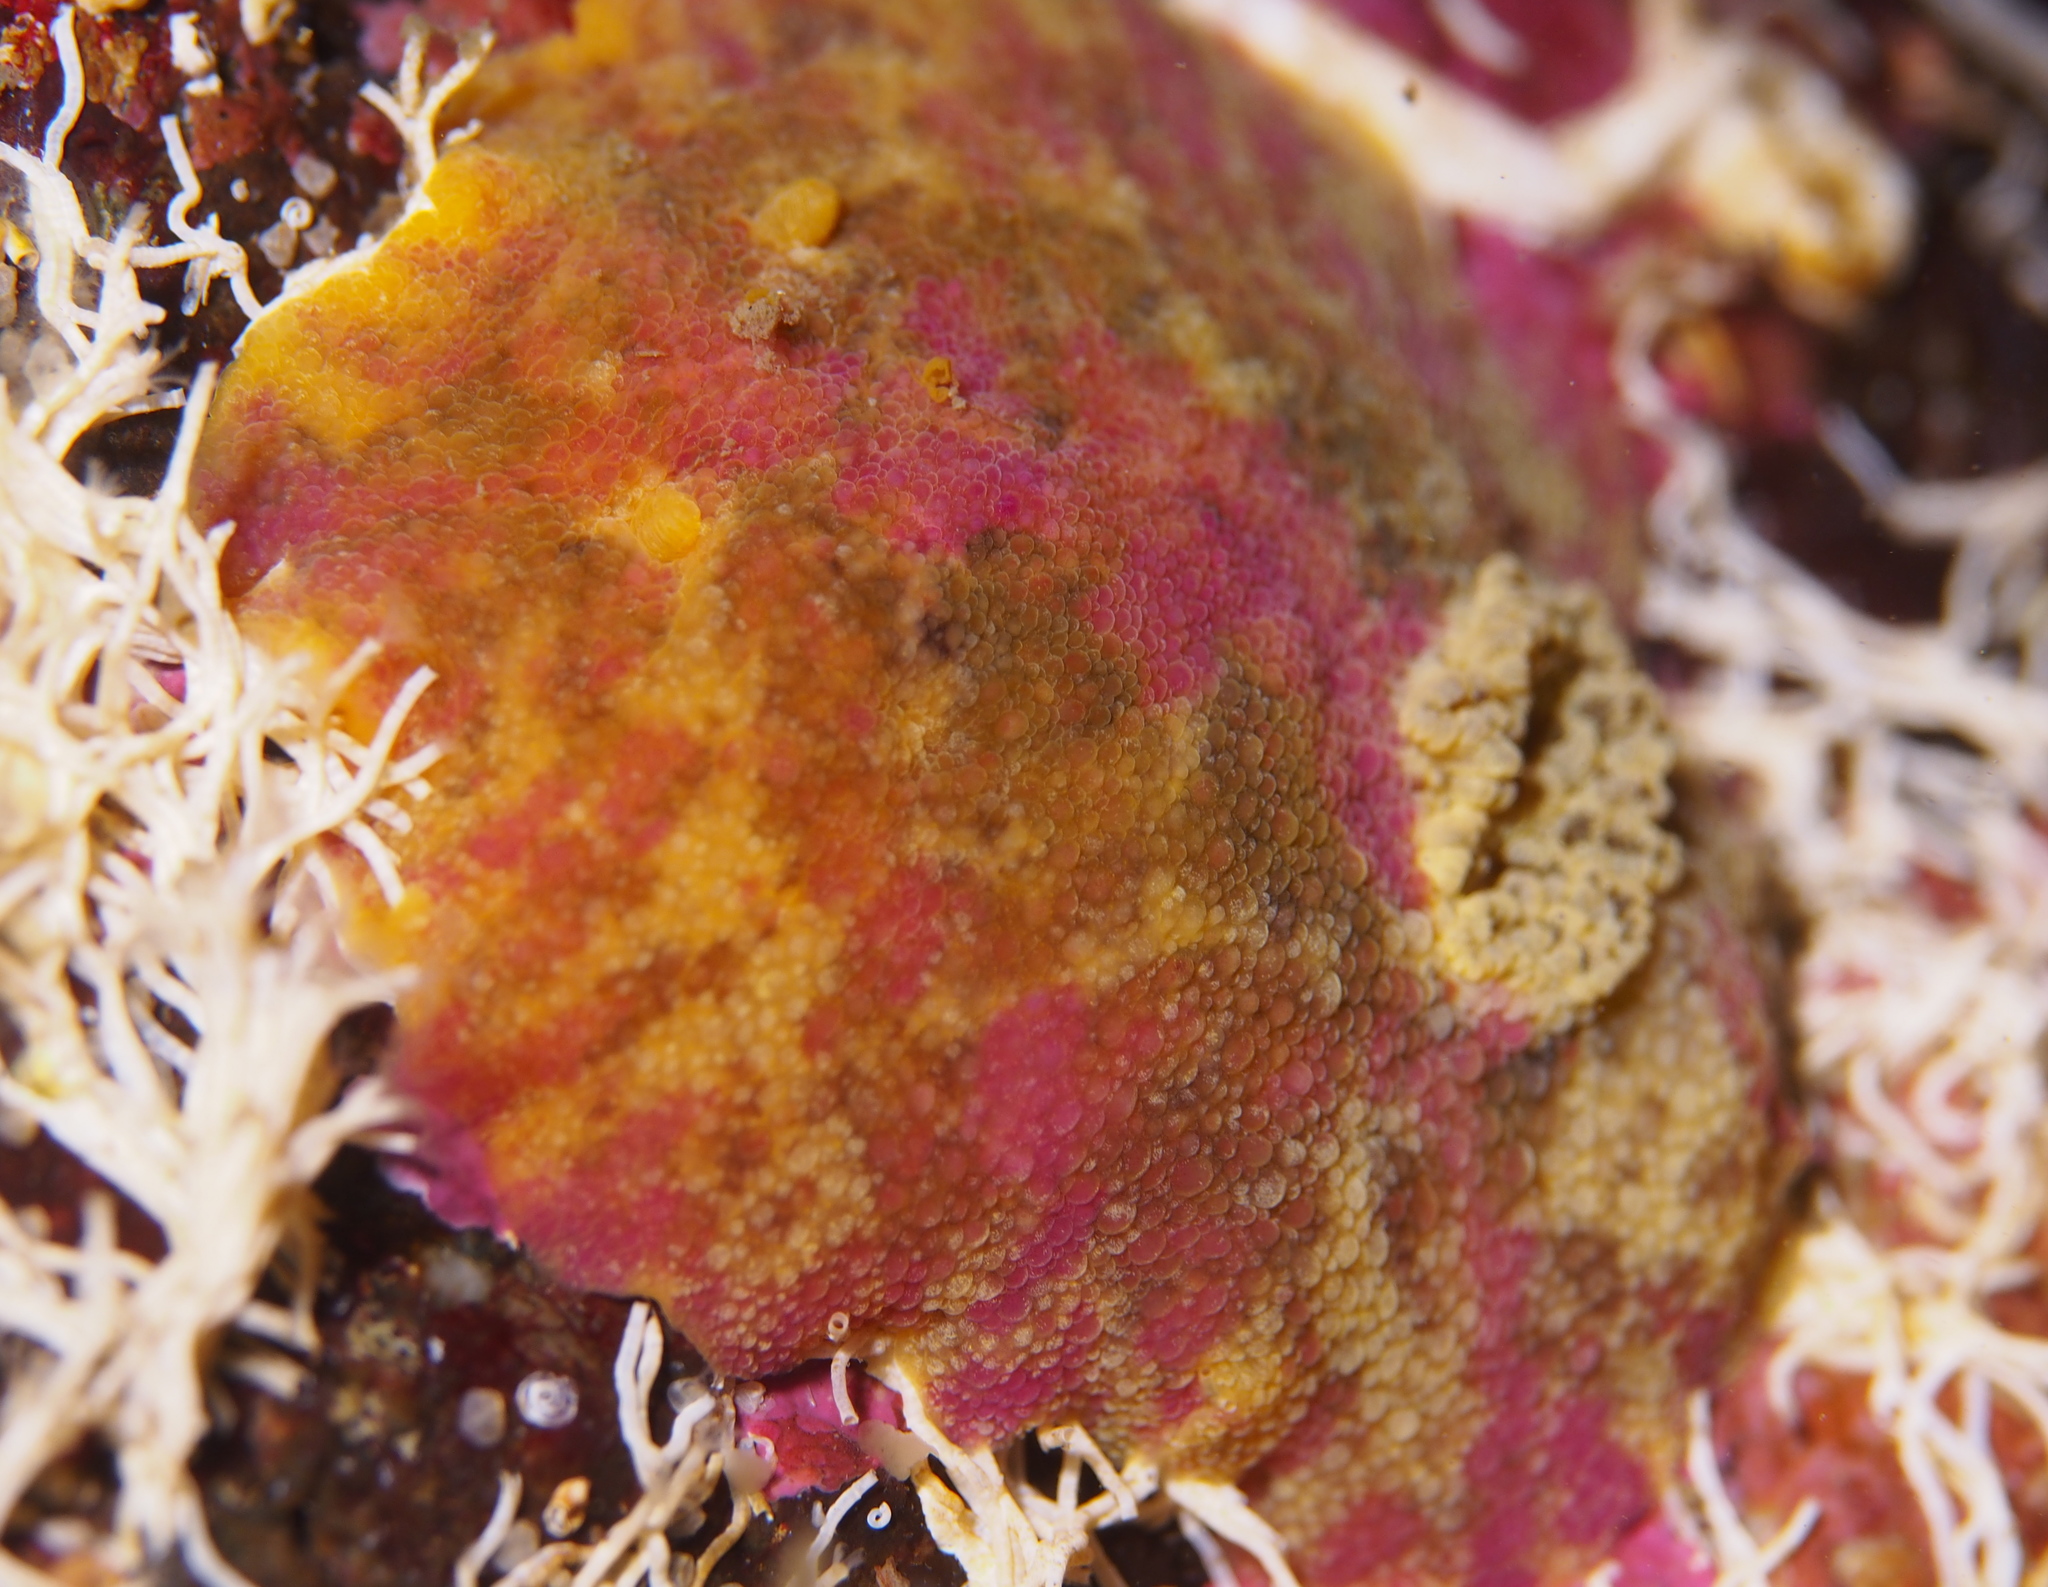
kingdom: Animalia
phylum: Mollusca
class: Gastropoda
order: Nudibranchia
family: Dorididae
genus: Doris
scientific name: Doris pseudoargus
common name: Sea lemon
